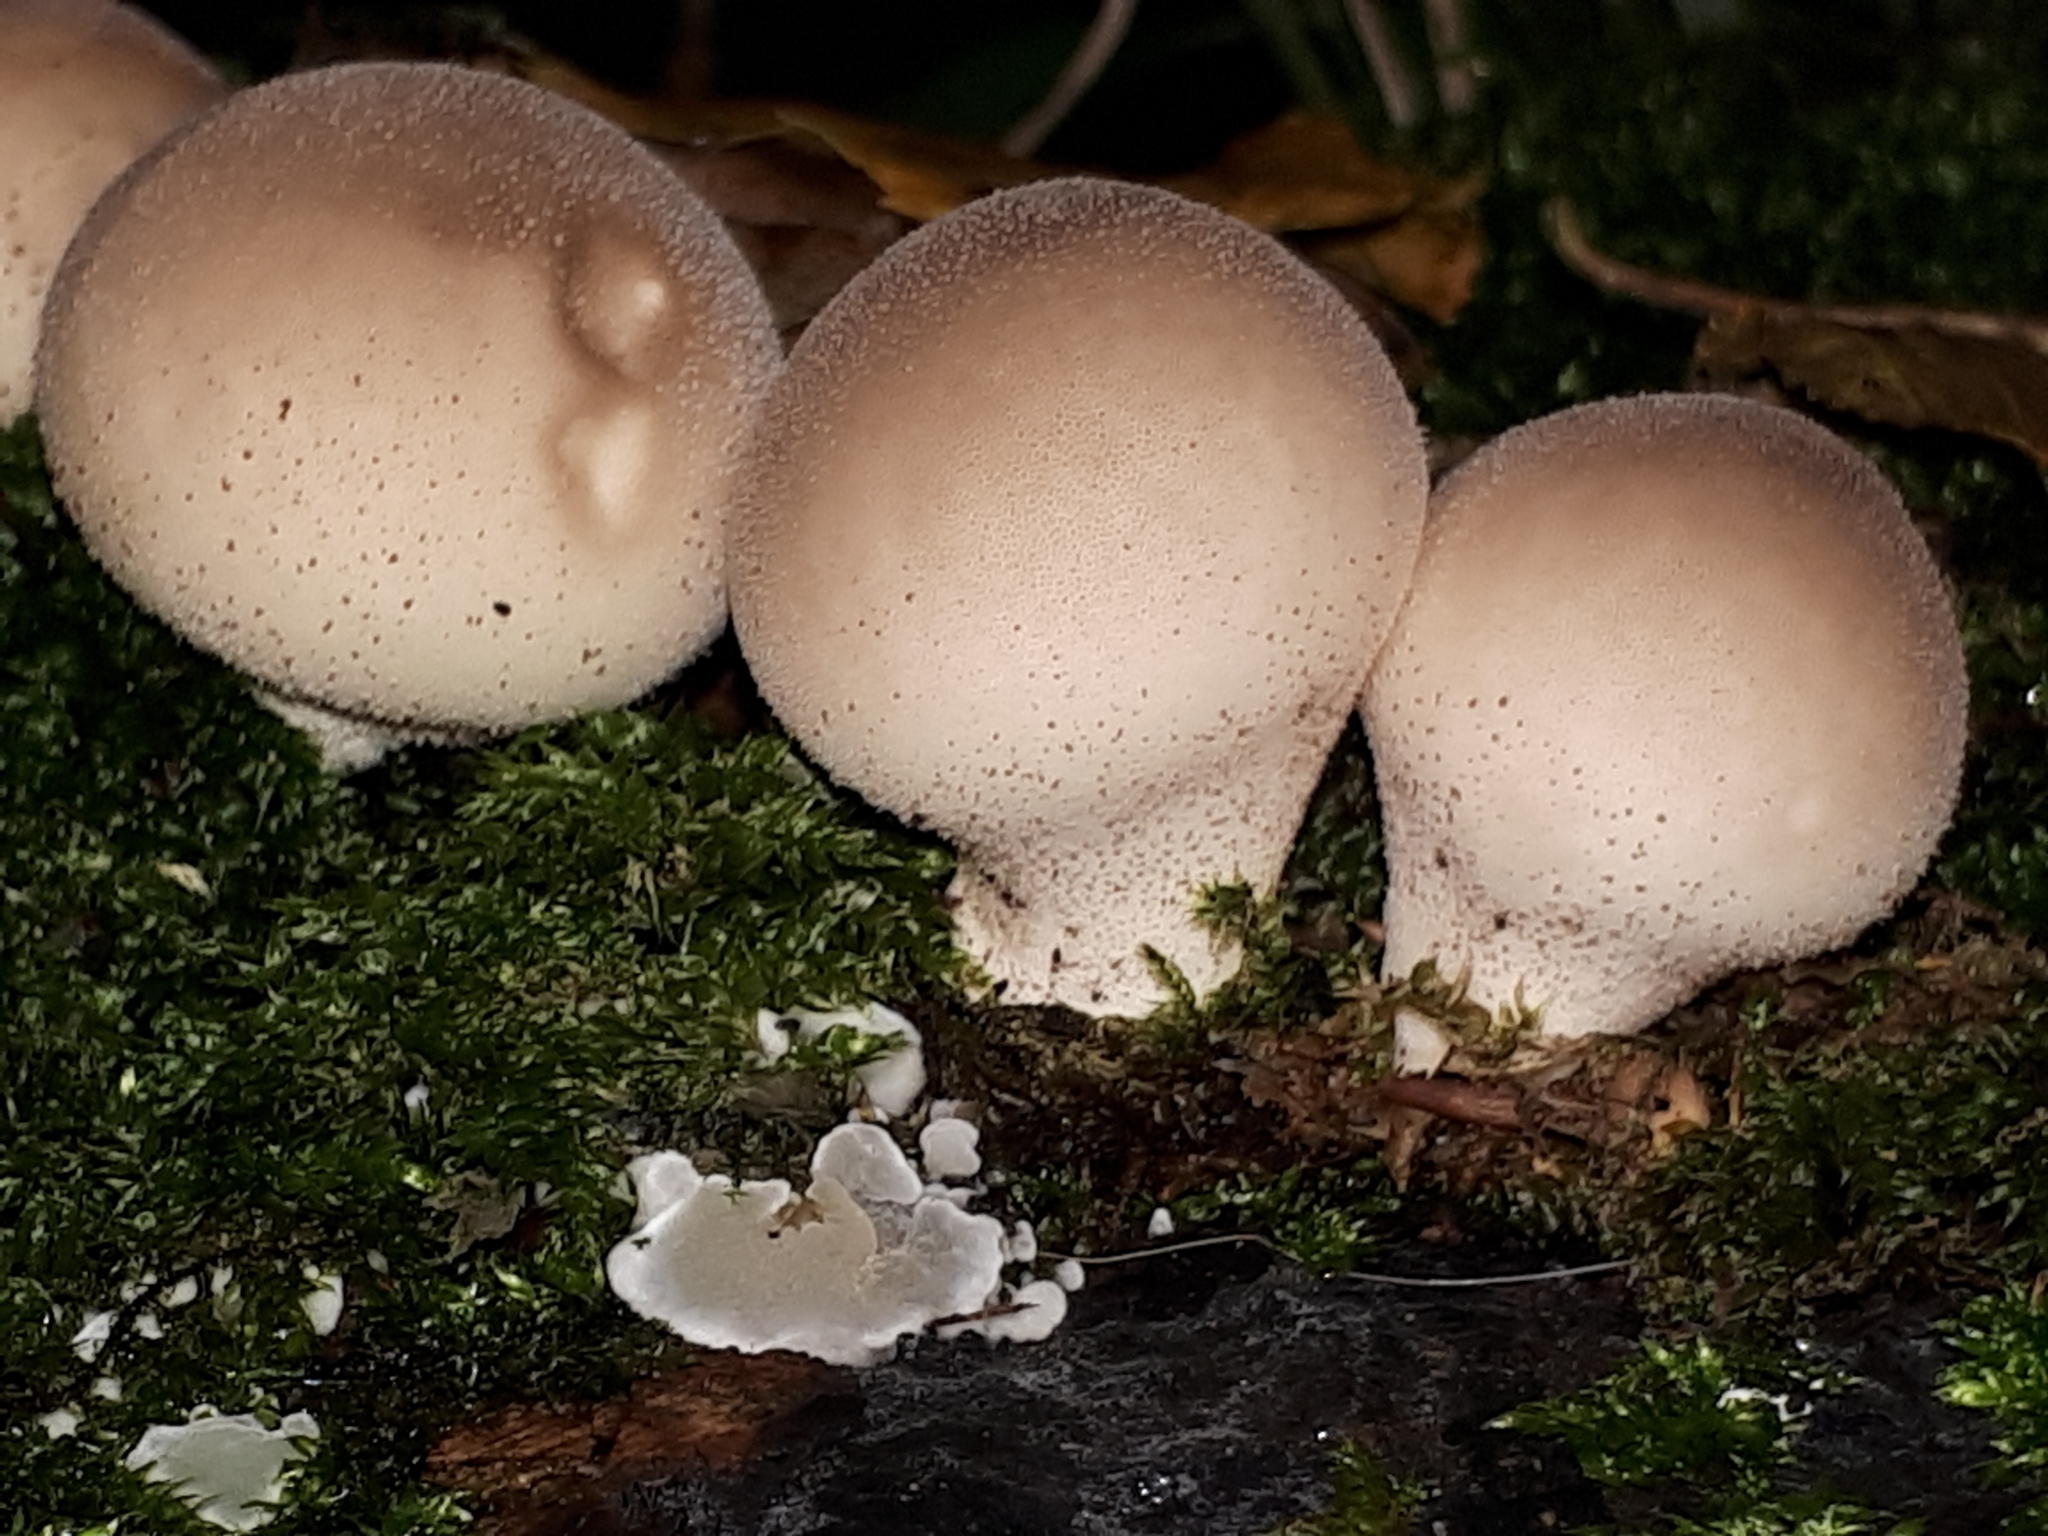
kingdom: Fungi
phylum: Basidiomycota
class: Agaricomycetes
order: Agaricales
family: Lycoperdaceae
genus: Apioperdon
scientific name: Apioperdon pyriforme
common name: Pear-shaped puffball
